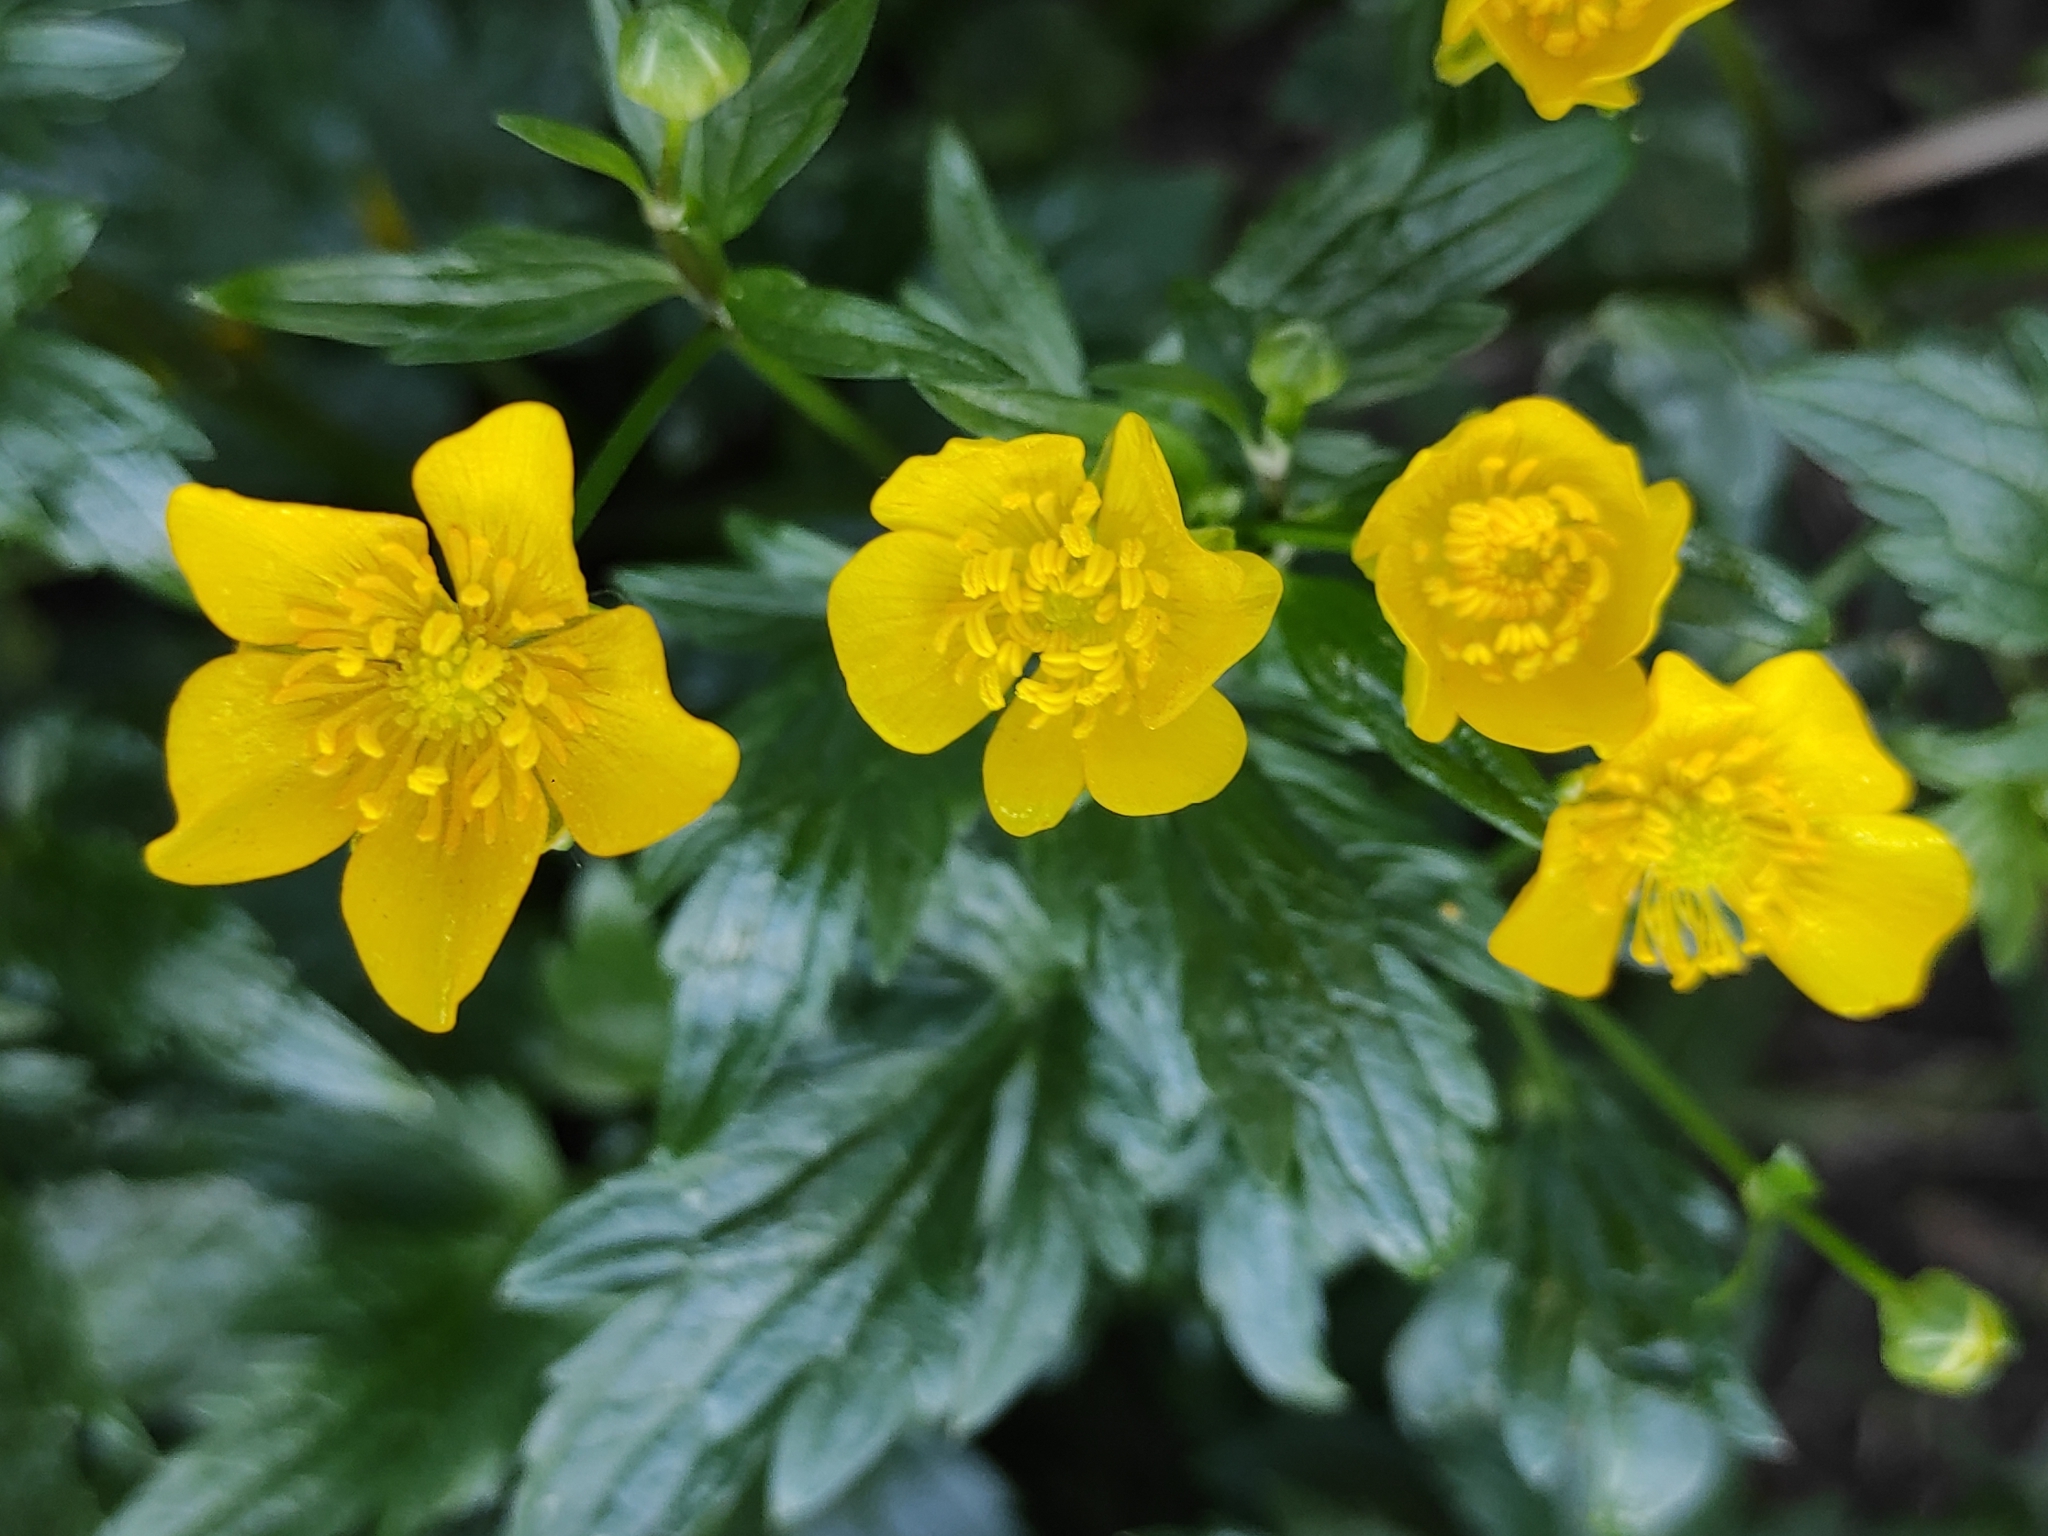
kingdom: Plantae
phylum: Tracheophyta
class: Magnoliopsida
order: Ranunculales
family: Ranunculaceae
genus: Ranunculus
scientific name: Ranunculus repens
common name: Creeping buttercup
